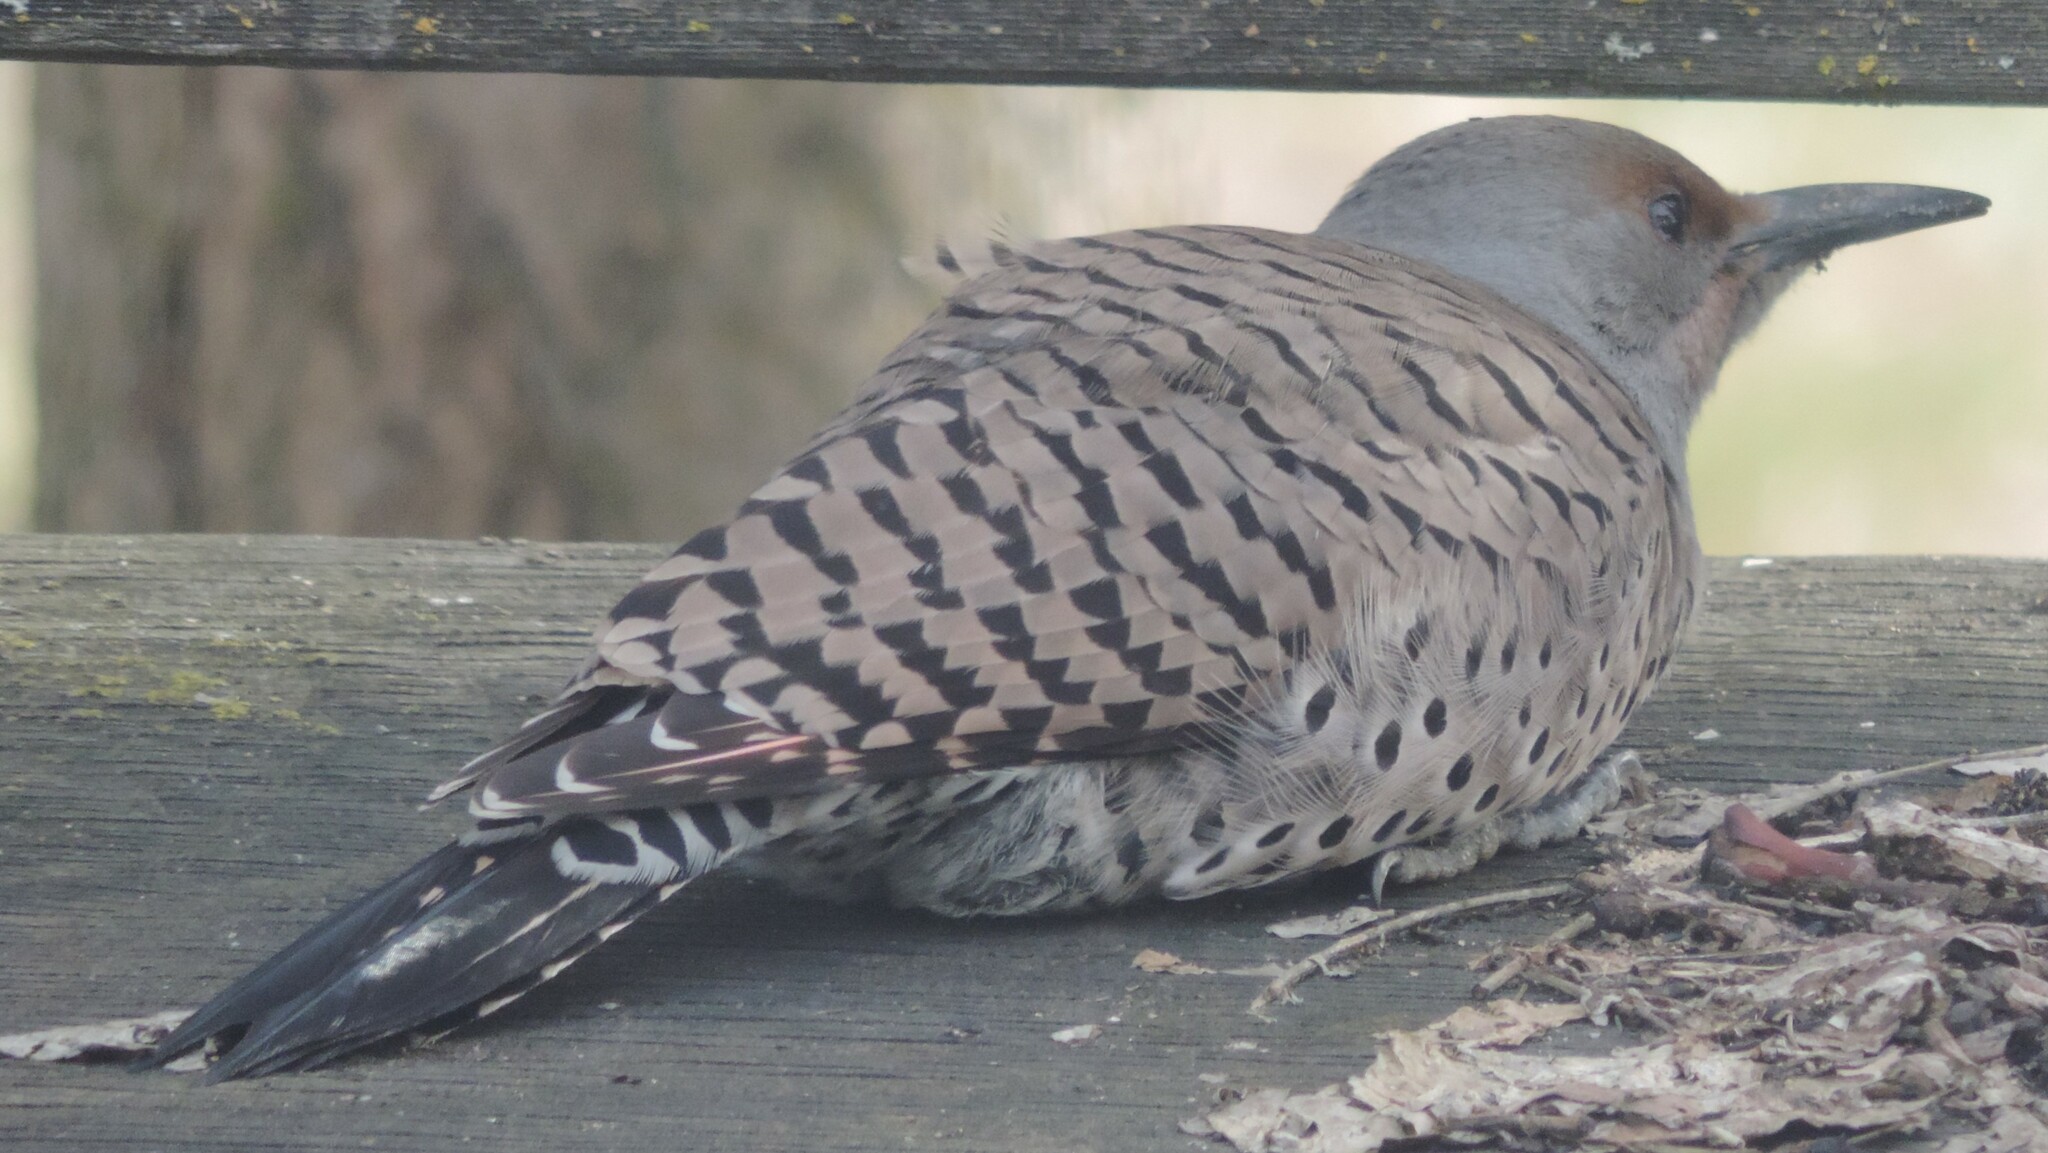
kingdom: Animalia
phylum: Chordata
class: Aves
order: Piciformes
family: Picidae
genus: Colaptes
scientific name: Colaptes auratus
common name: Northern flicker
